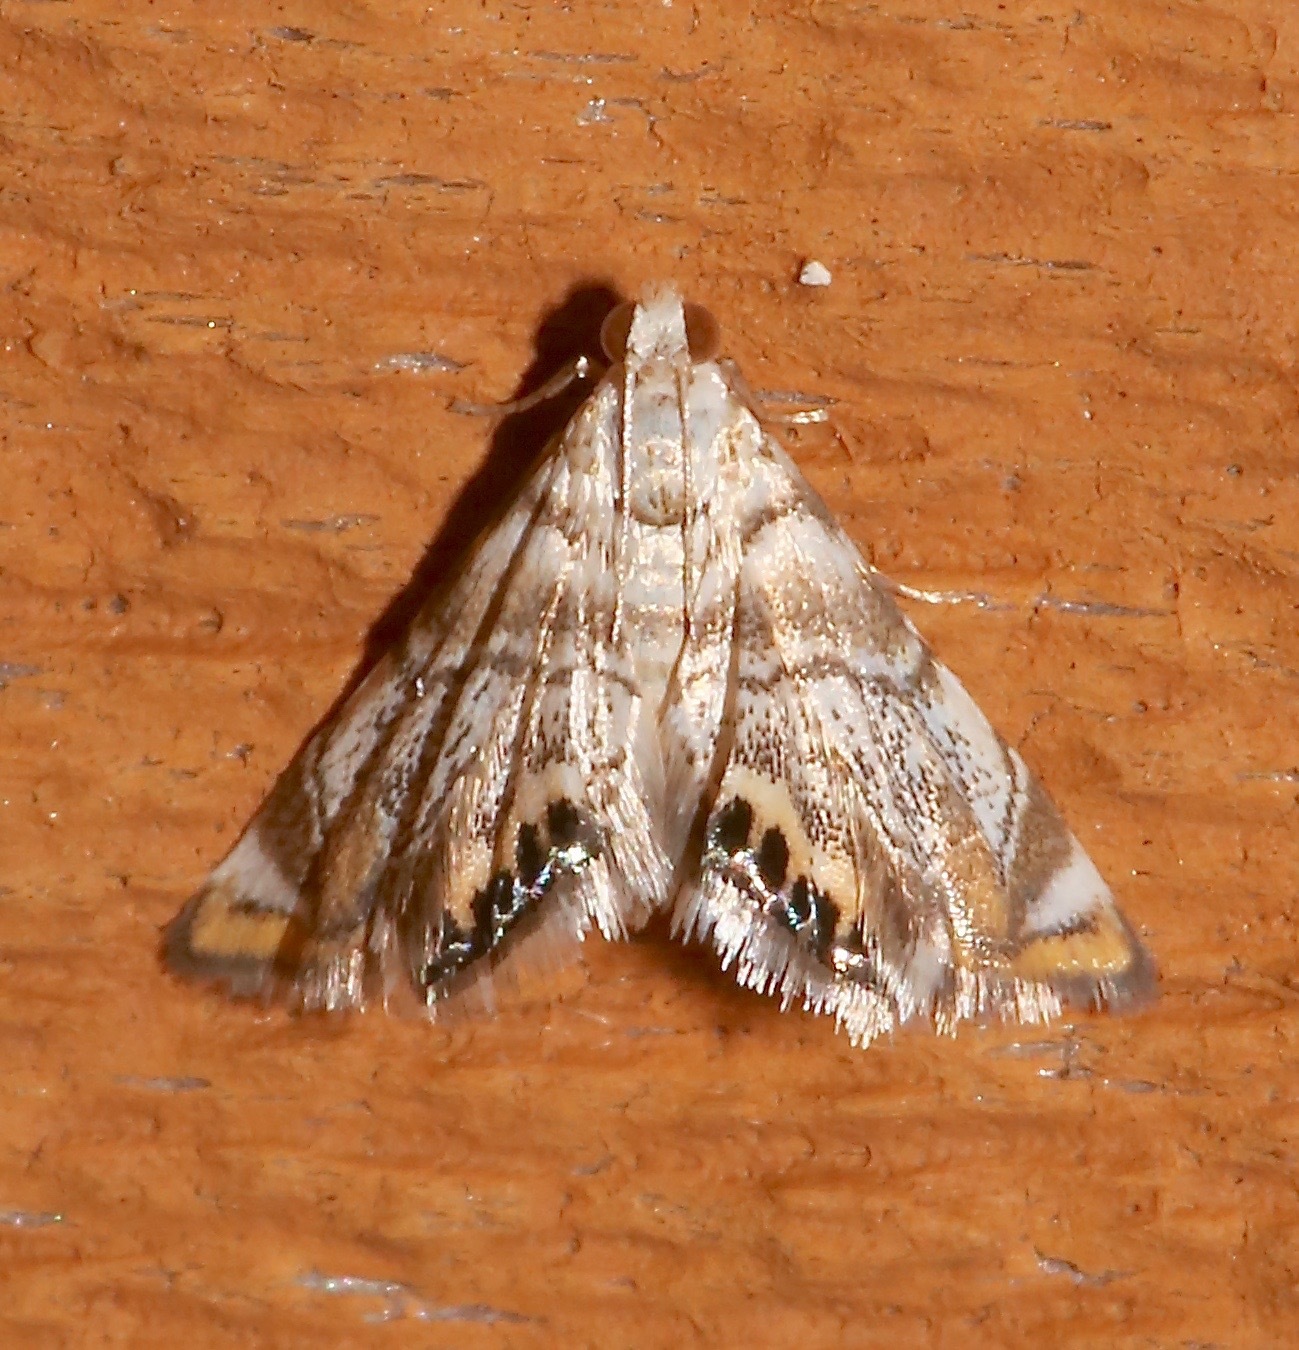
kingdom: Animalia
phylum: Arthropoda
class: Insecta
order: Lepidoptera
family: Crambidae
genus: Eoparargyractis
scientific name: Eoparargyractis irroratalis
